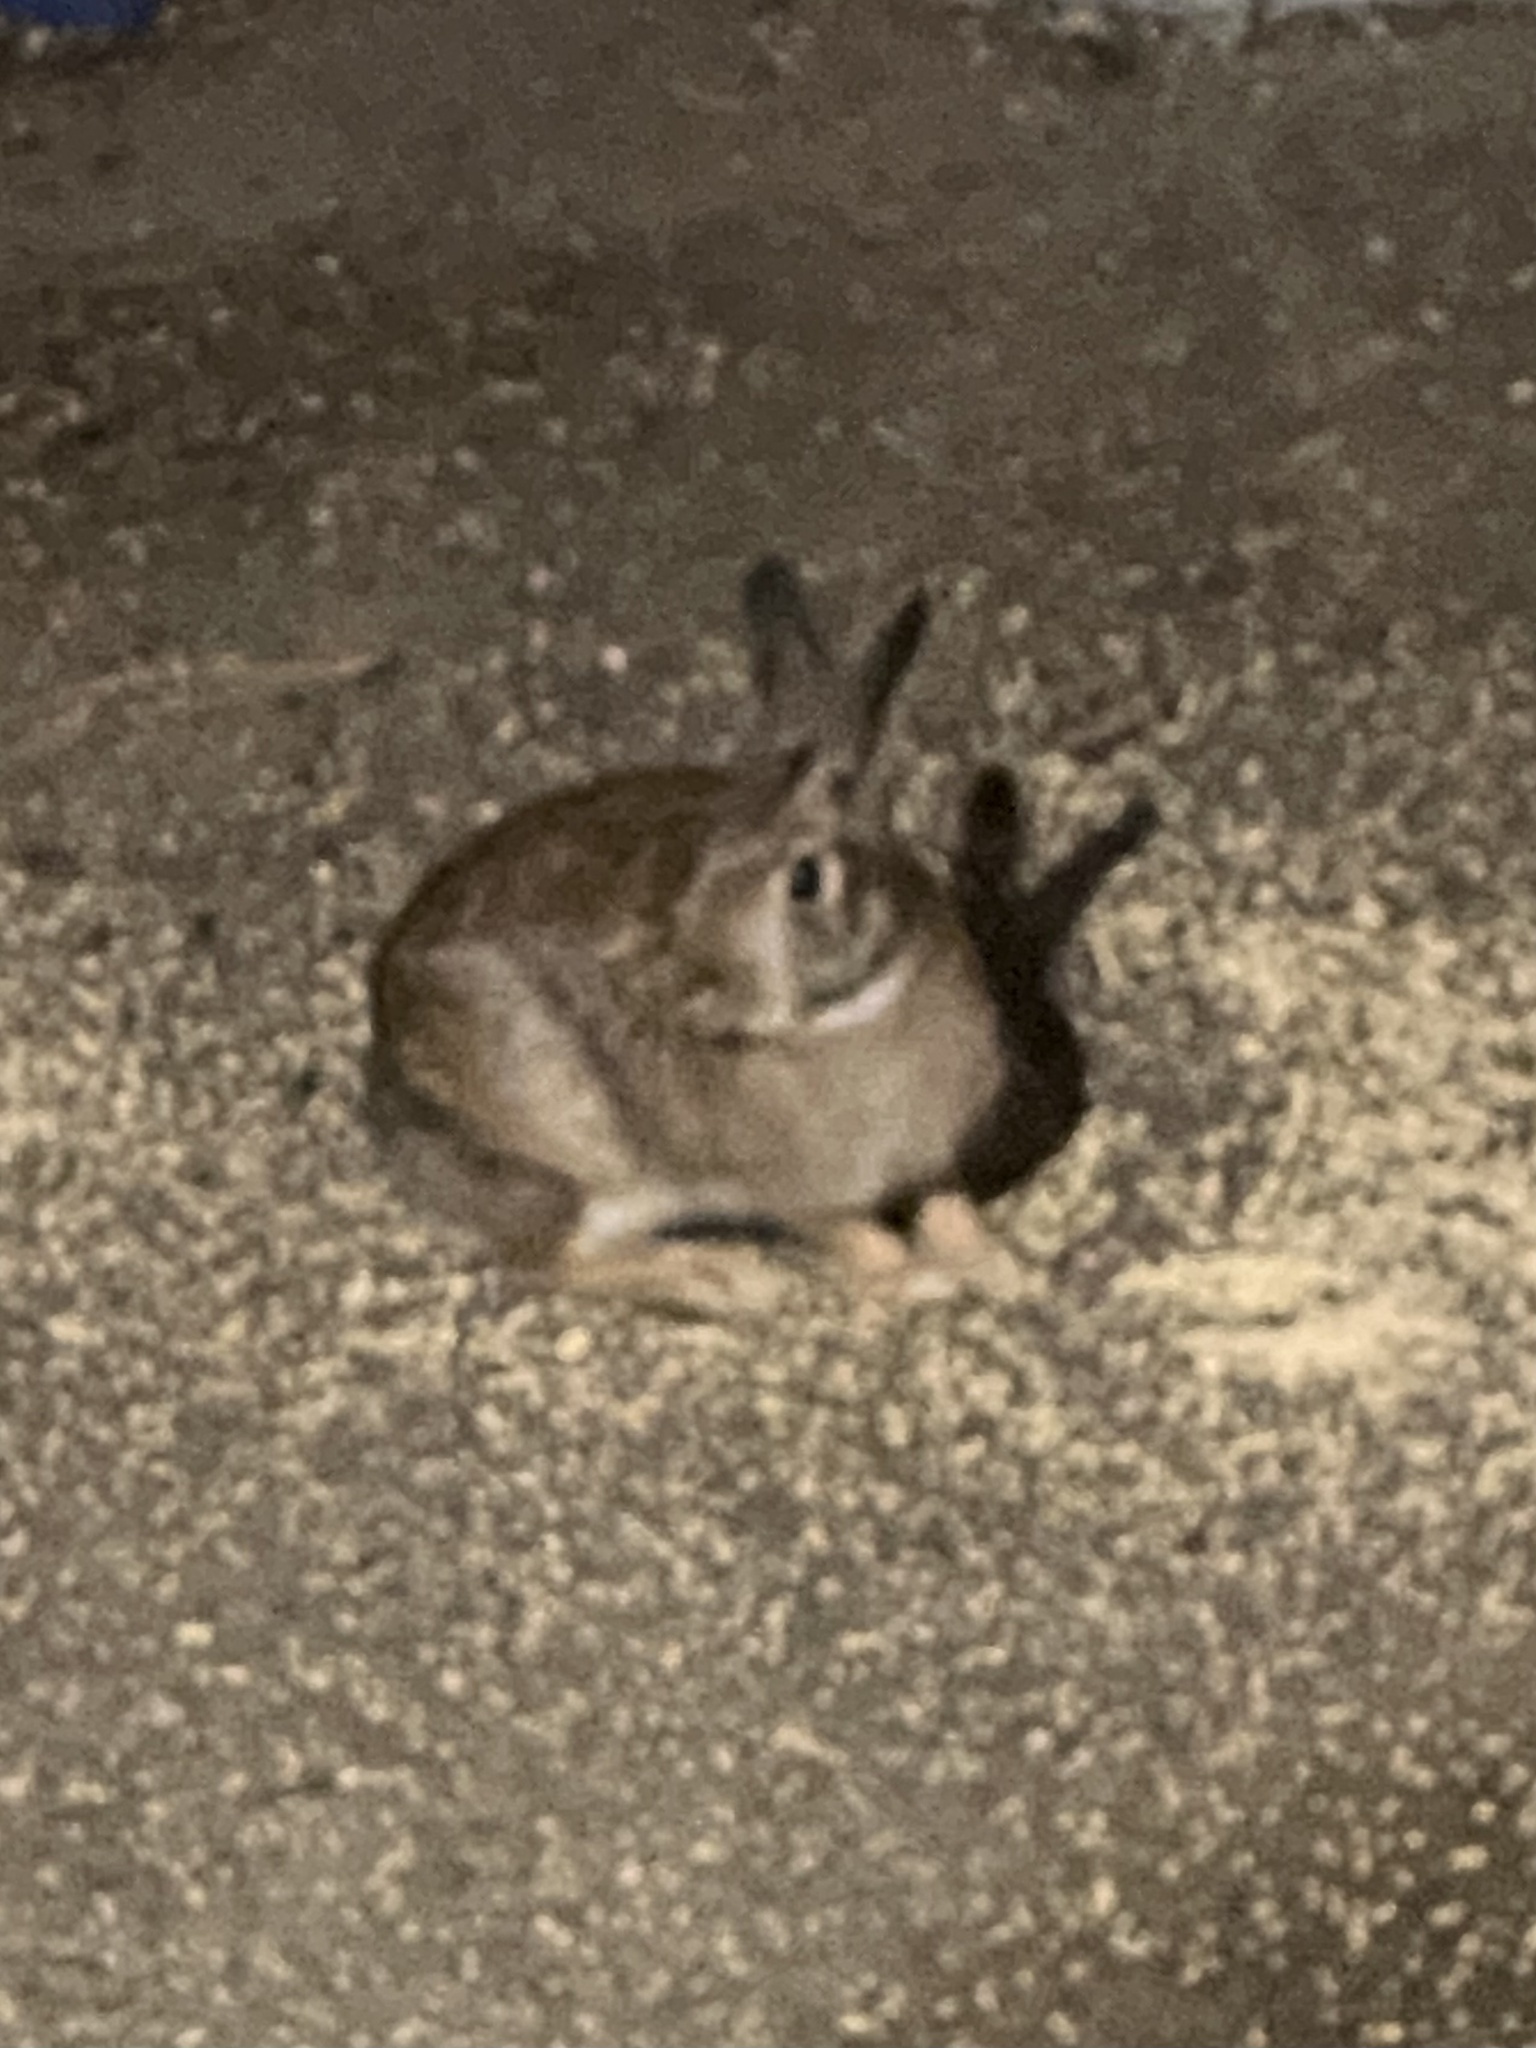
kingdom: Animalia
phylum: Chordata
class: Mammalia
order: Lagomorpha
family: Leporidae
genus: Sylvilagus
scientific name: Sylvilagus floridanus
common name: Eastern cottontail
